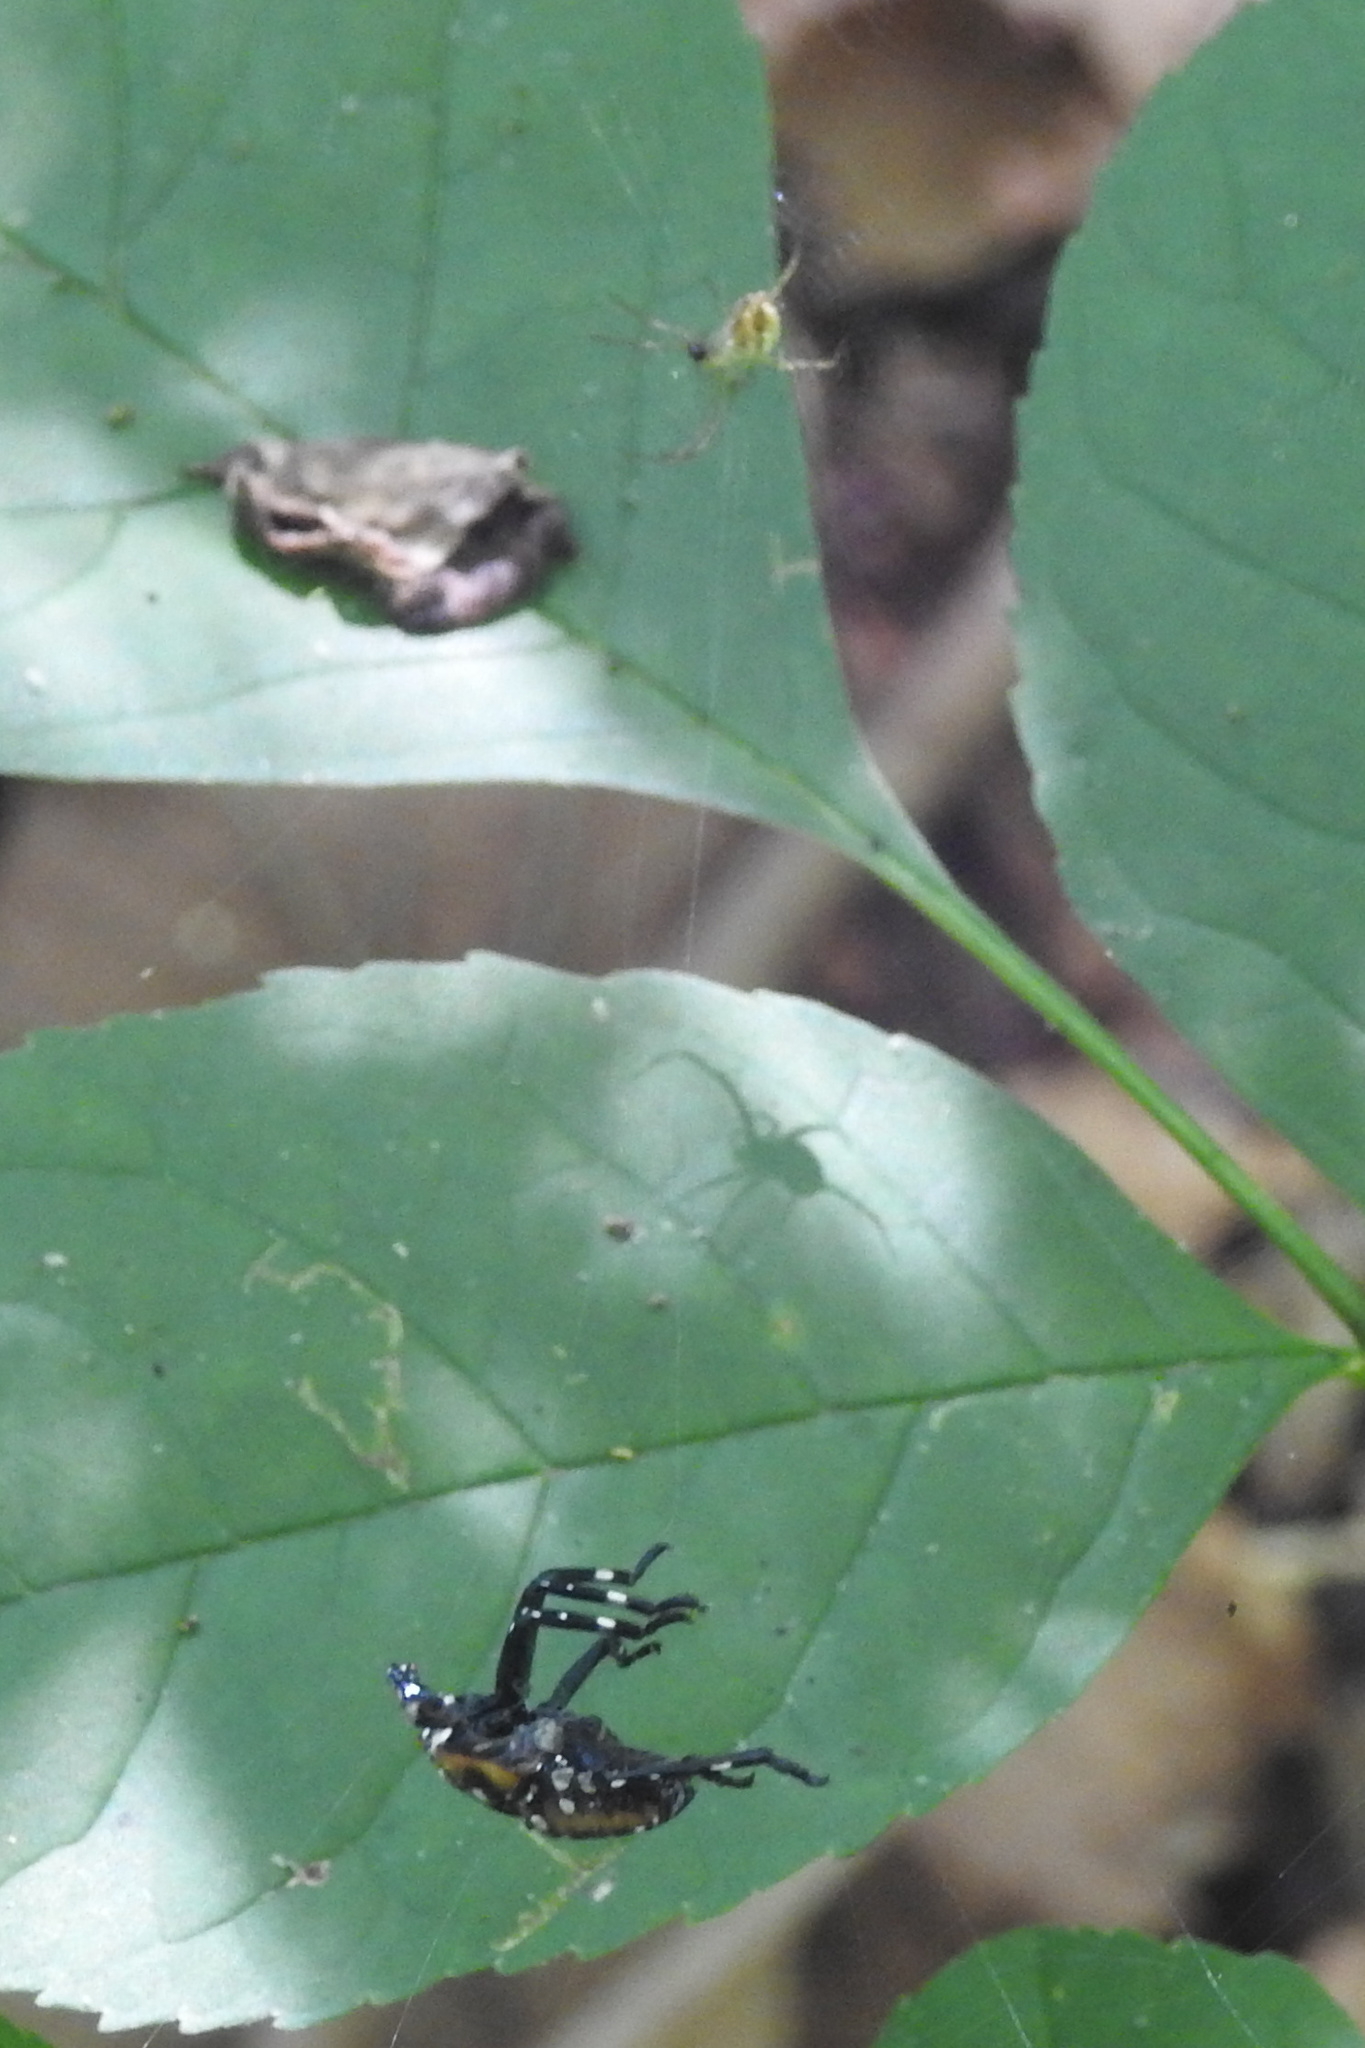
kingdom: Animalia
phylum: Arthropoda
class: Insecta
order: Hemiptera
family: Fulgoridae
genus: Lycorma
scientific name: Lycorma delicatula
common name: Spotted lanternfly
